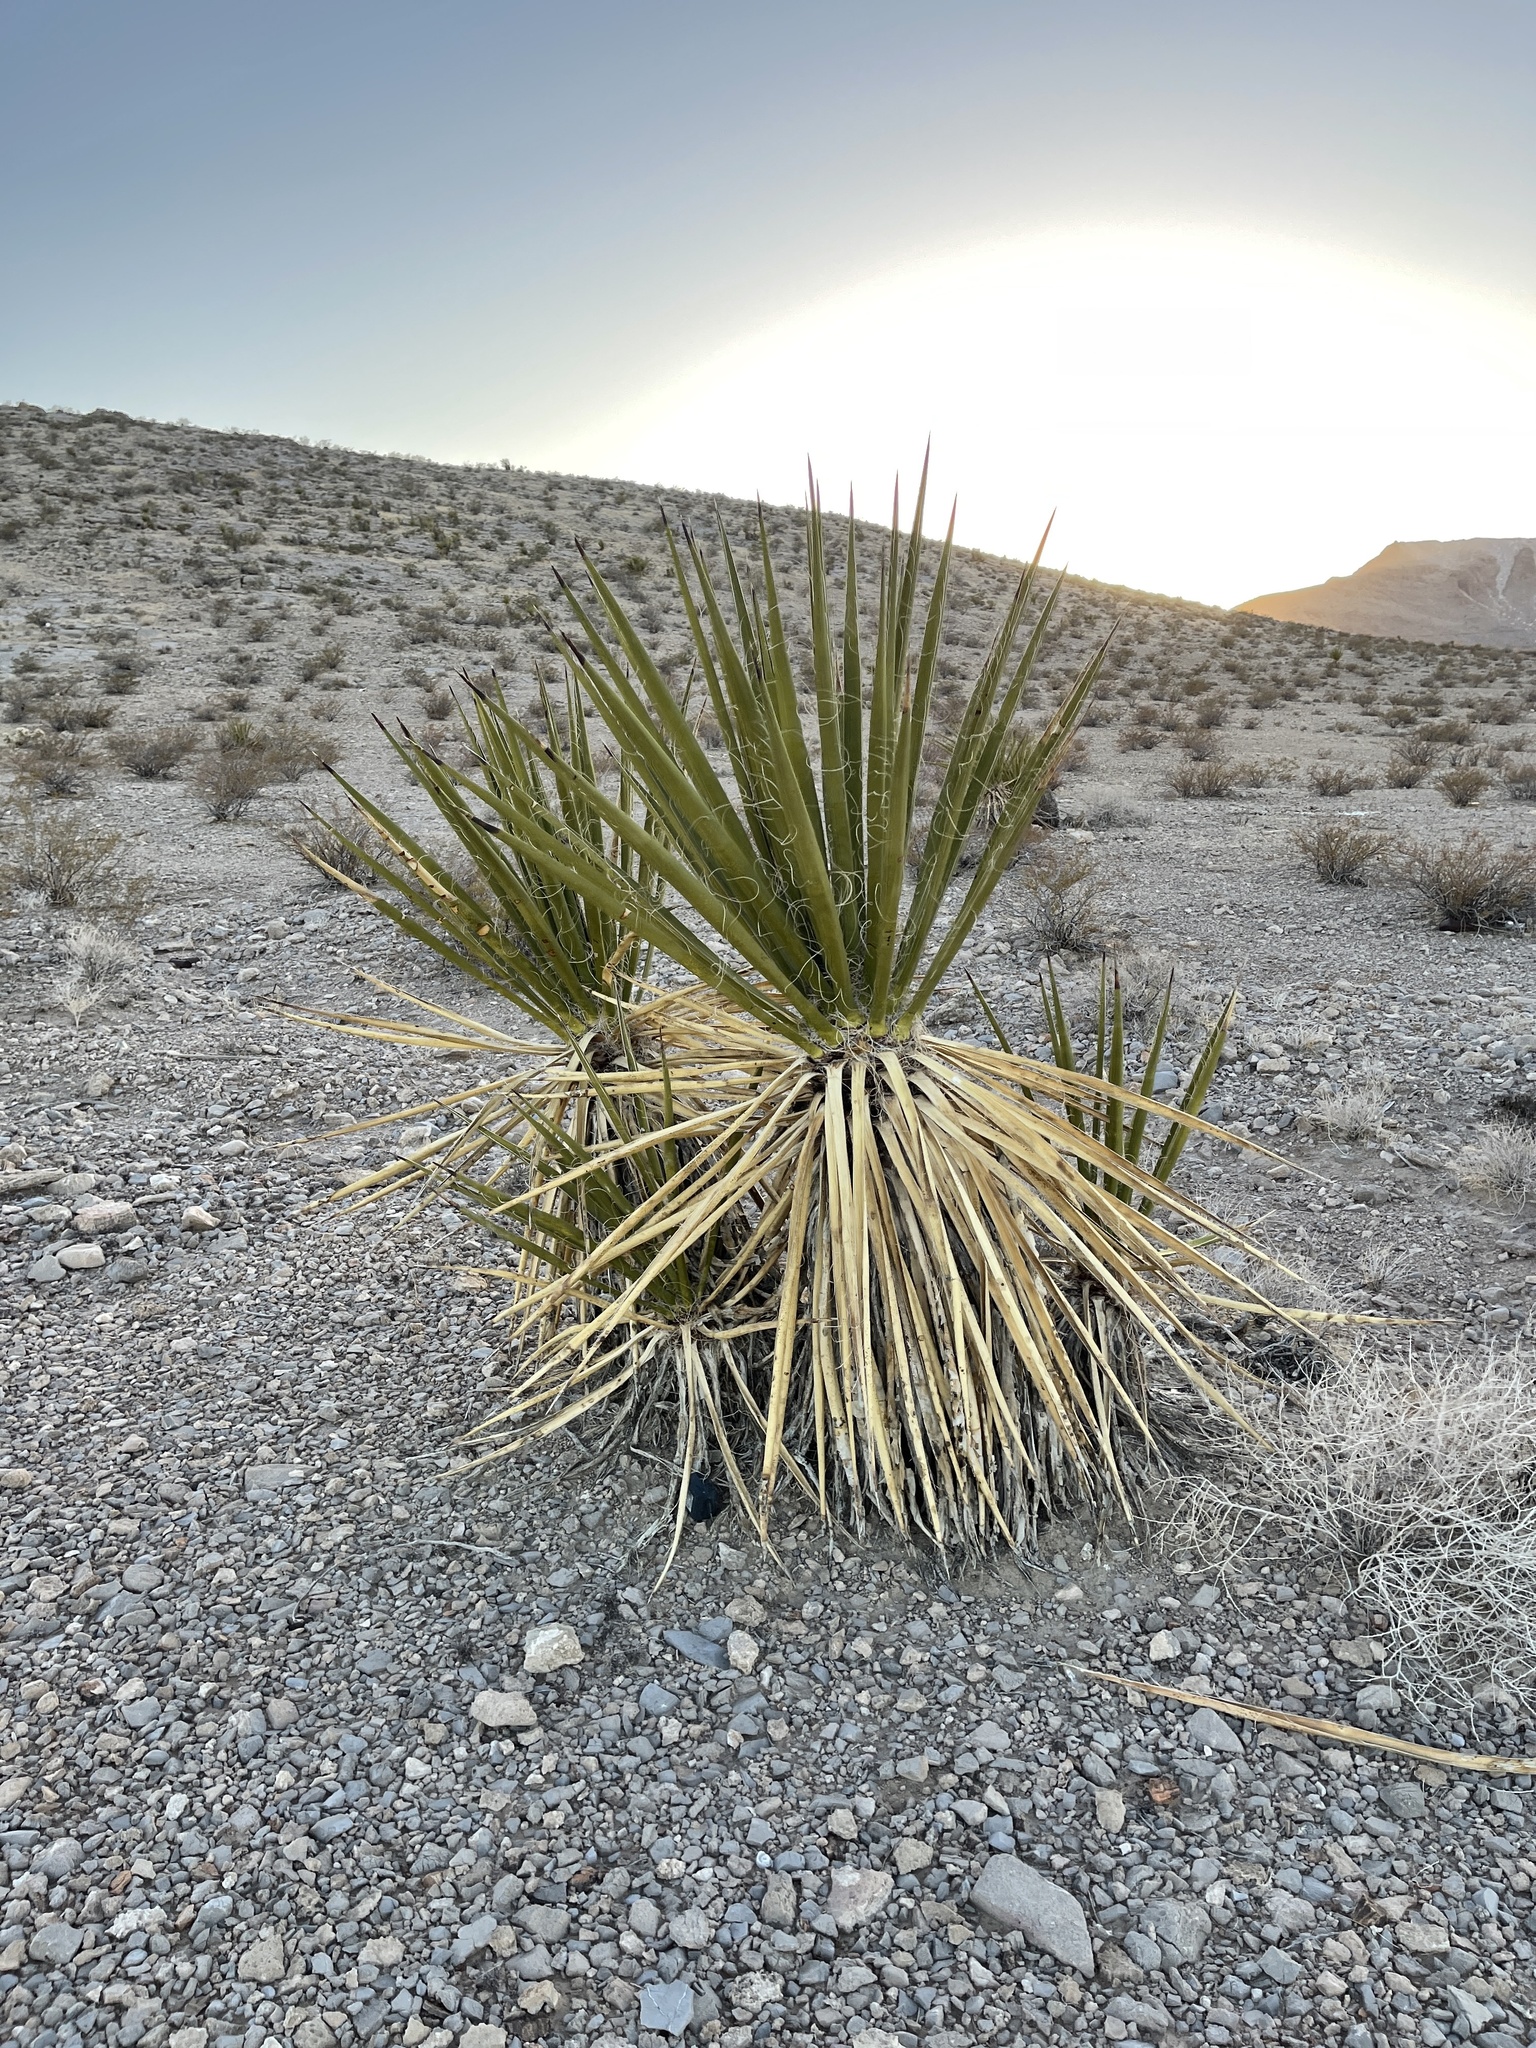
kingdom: Plantae
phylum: Tracheophyta
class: Liliopsida
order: Asparagales
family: Asparagaceae
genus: Yucca
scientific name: Yucca schidigera
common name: Mojave yucca
